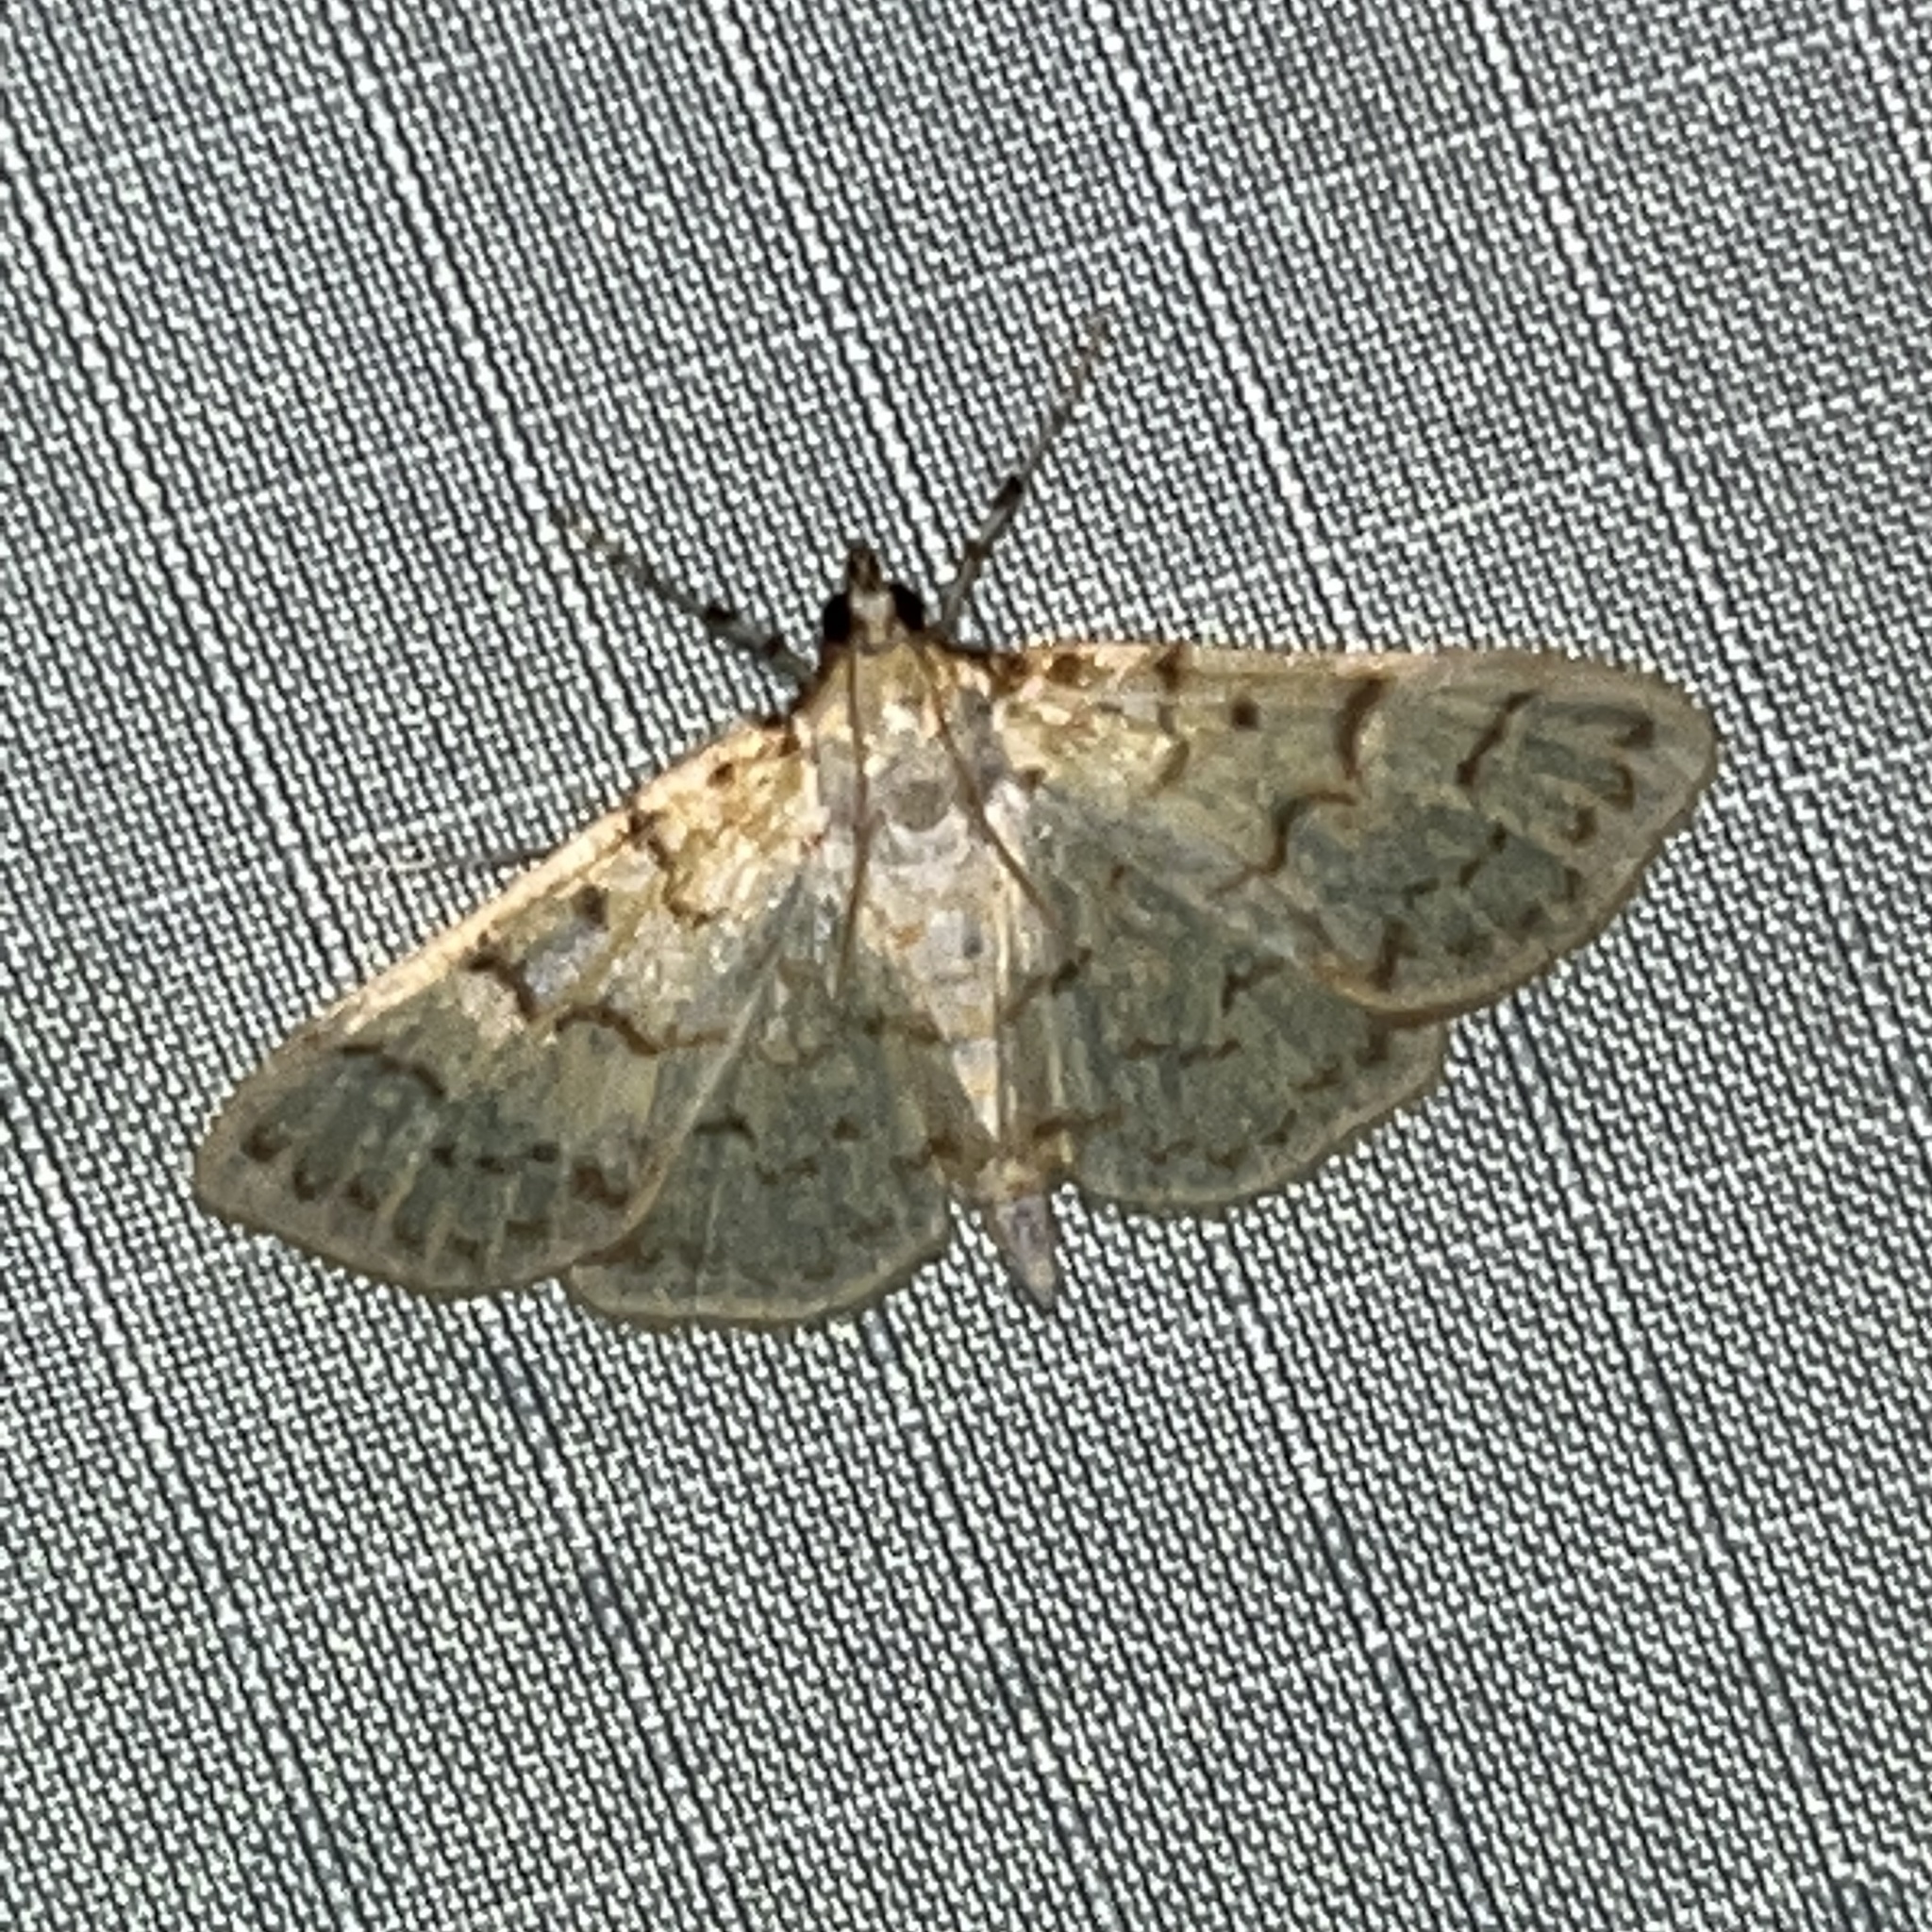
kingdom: Animalia
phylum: Arthropoda
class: Insecta
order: Lepidoptera
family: Crambidae
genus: Polygrammodes
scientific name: Polygrammodes flavidalis
